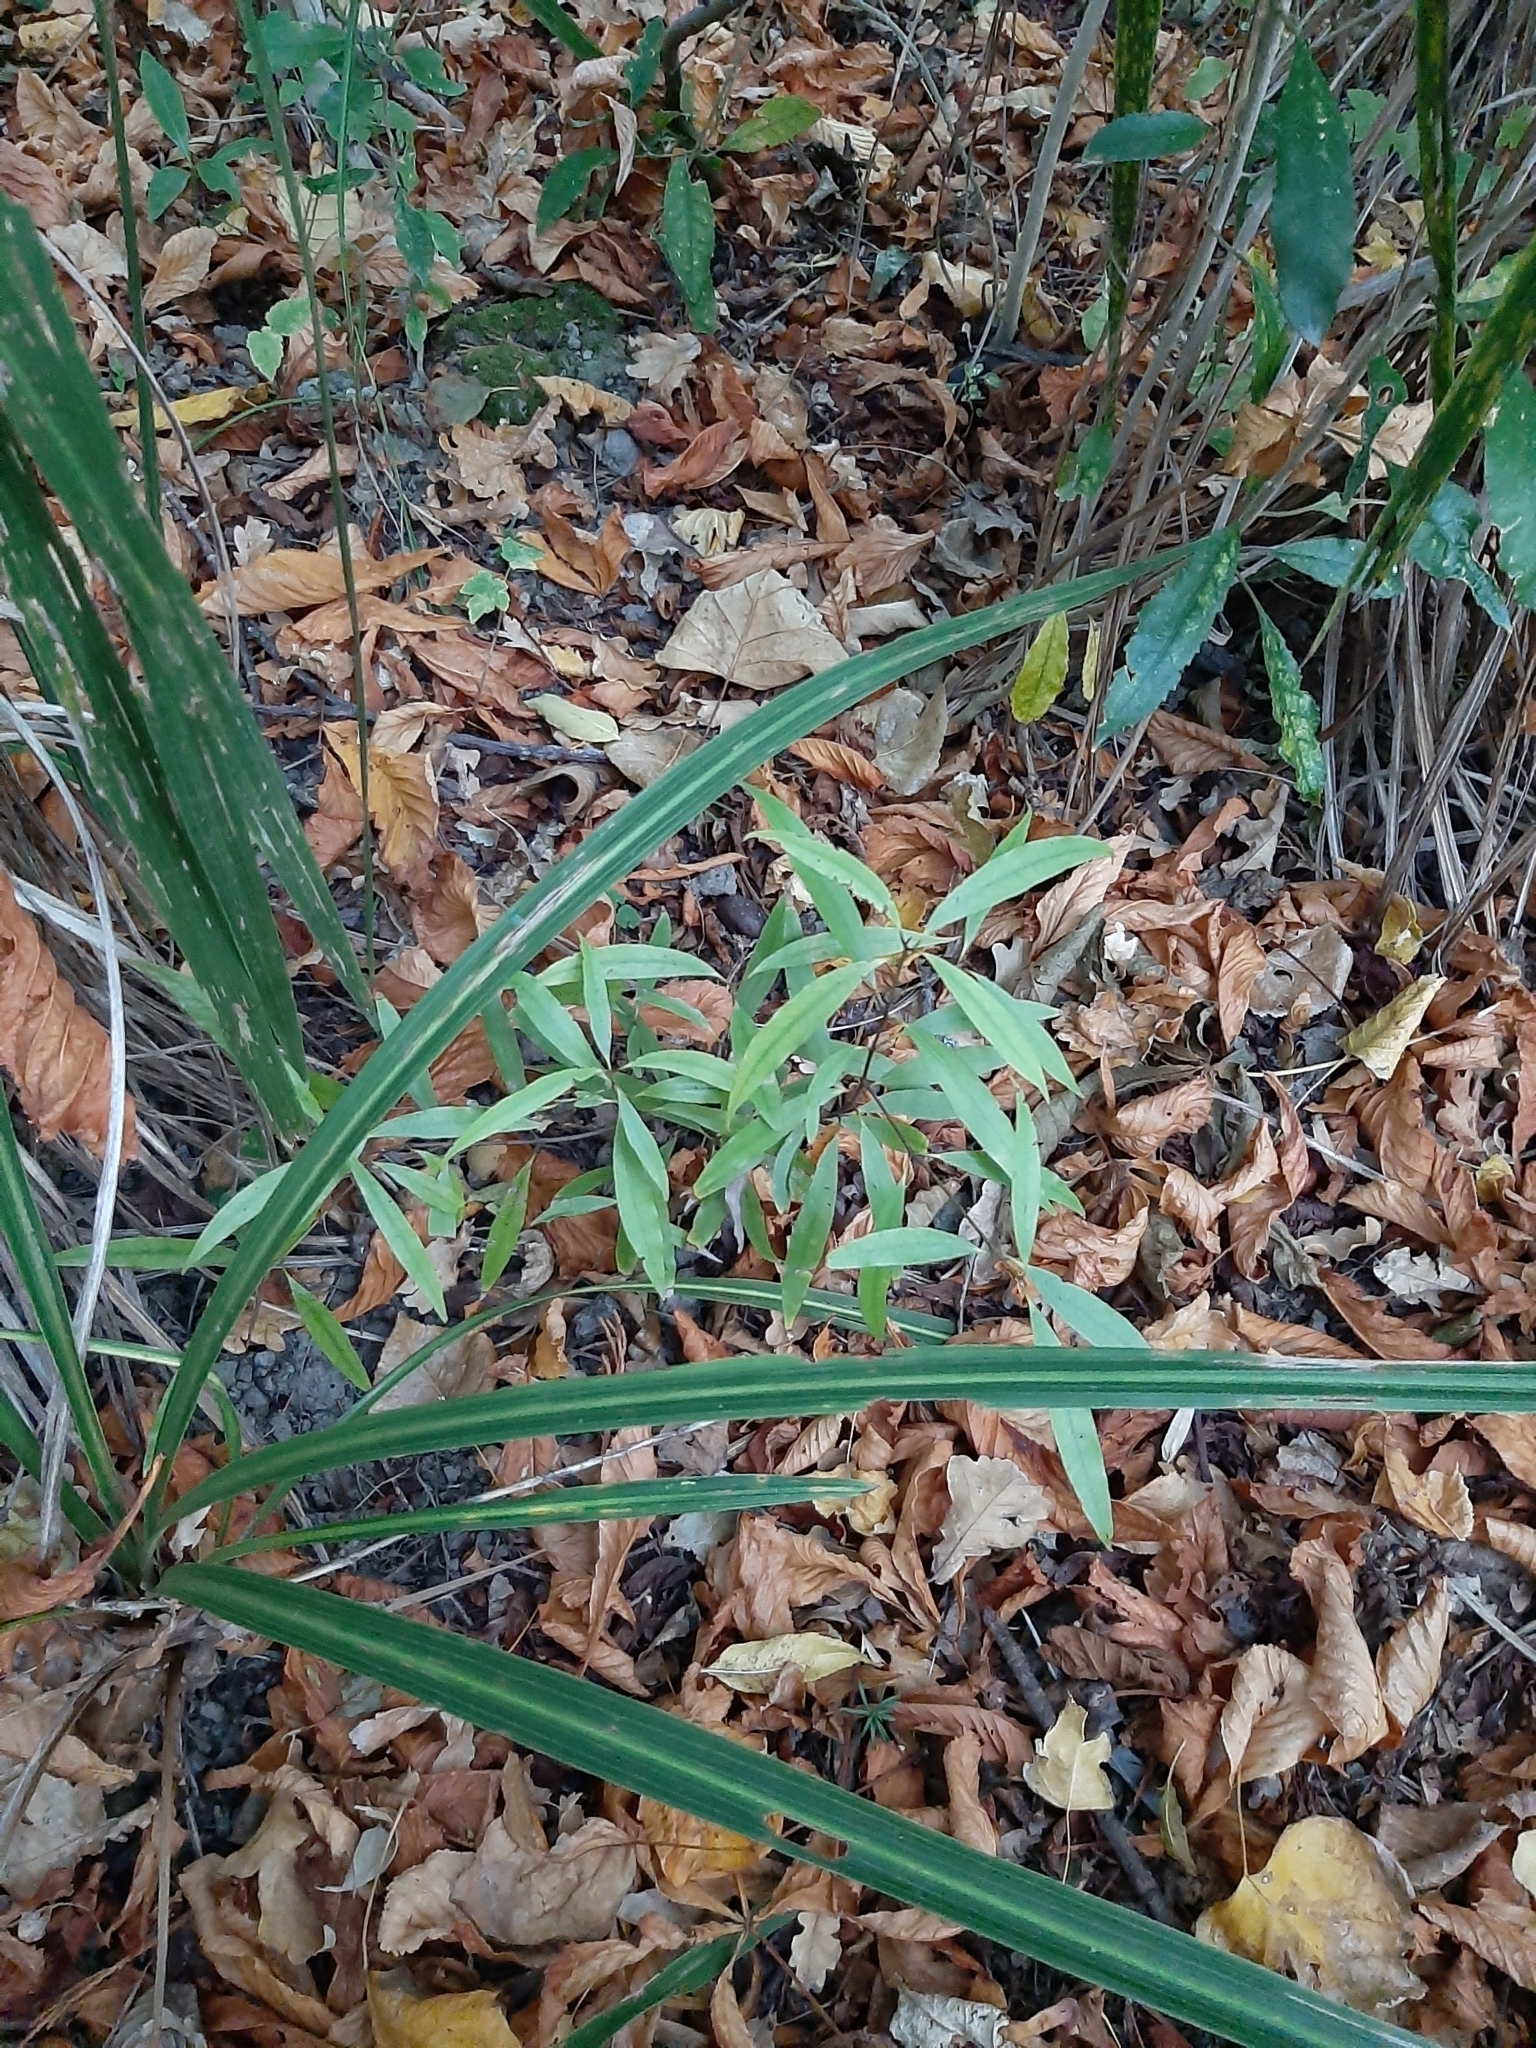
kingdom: Plantae
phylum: Tracheophyta
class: Magnoliopsida
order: Laurales
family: Lauraceae
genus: Beilschmiedia
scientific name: Beilschmiedia tawa
